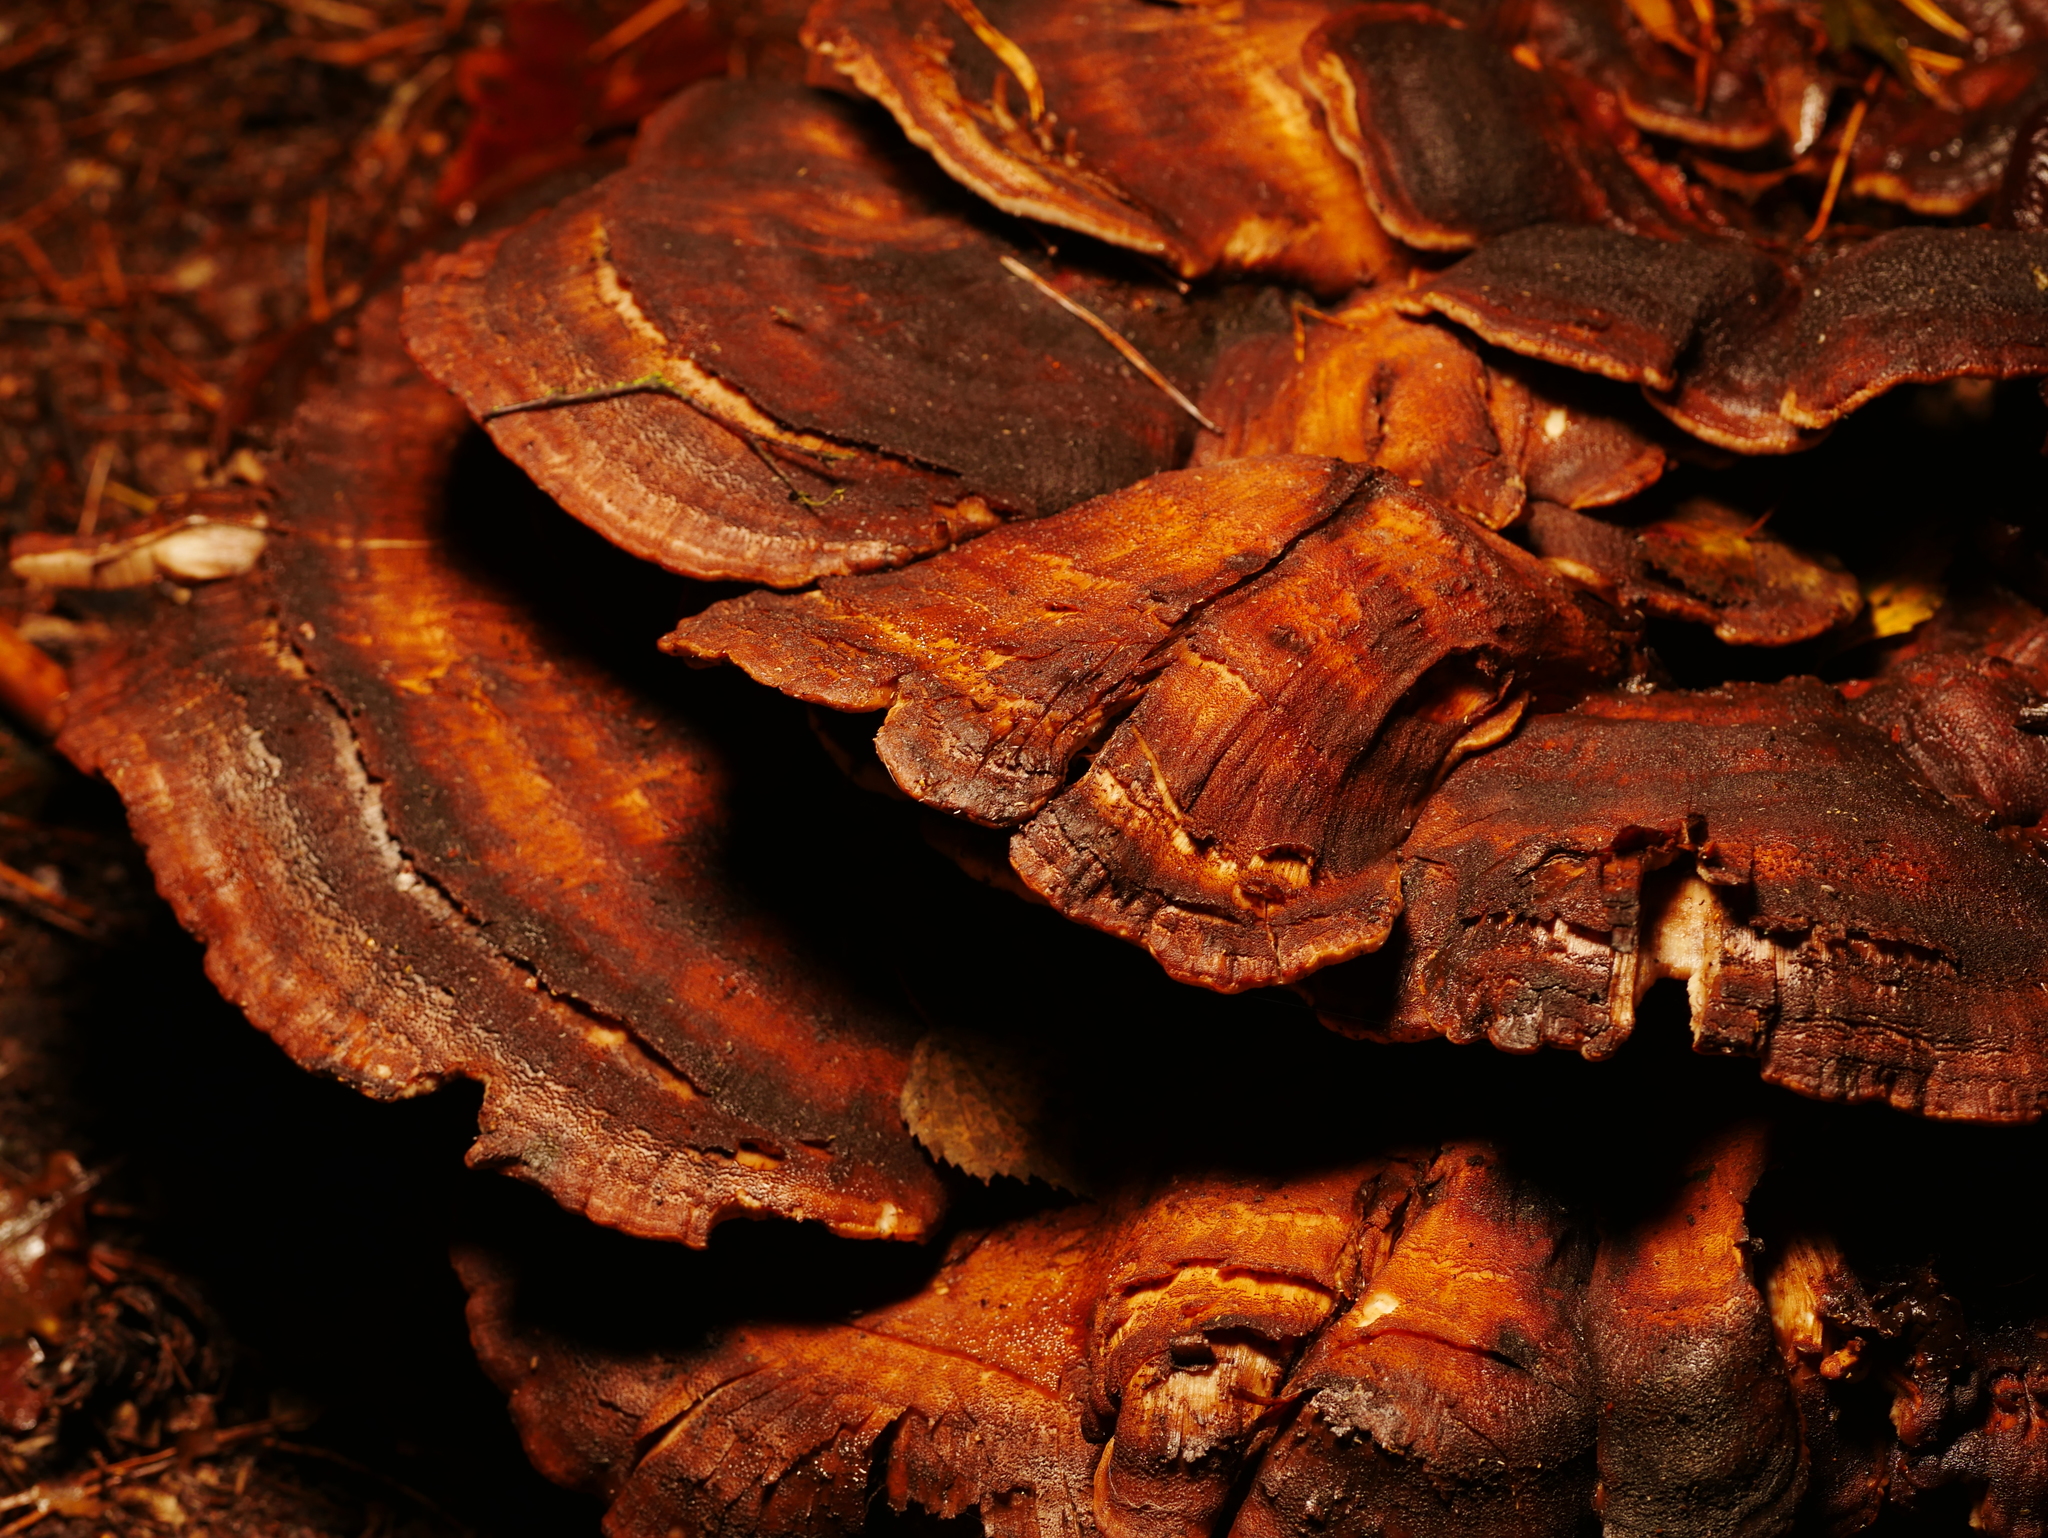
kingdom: Fungi
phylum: Basidiomycota
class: Agaricomycetes
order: Polyporales
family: Meripilaceae
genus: Meripilus
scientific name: Meripilus giganteus
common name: Giant polypore
